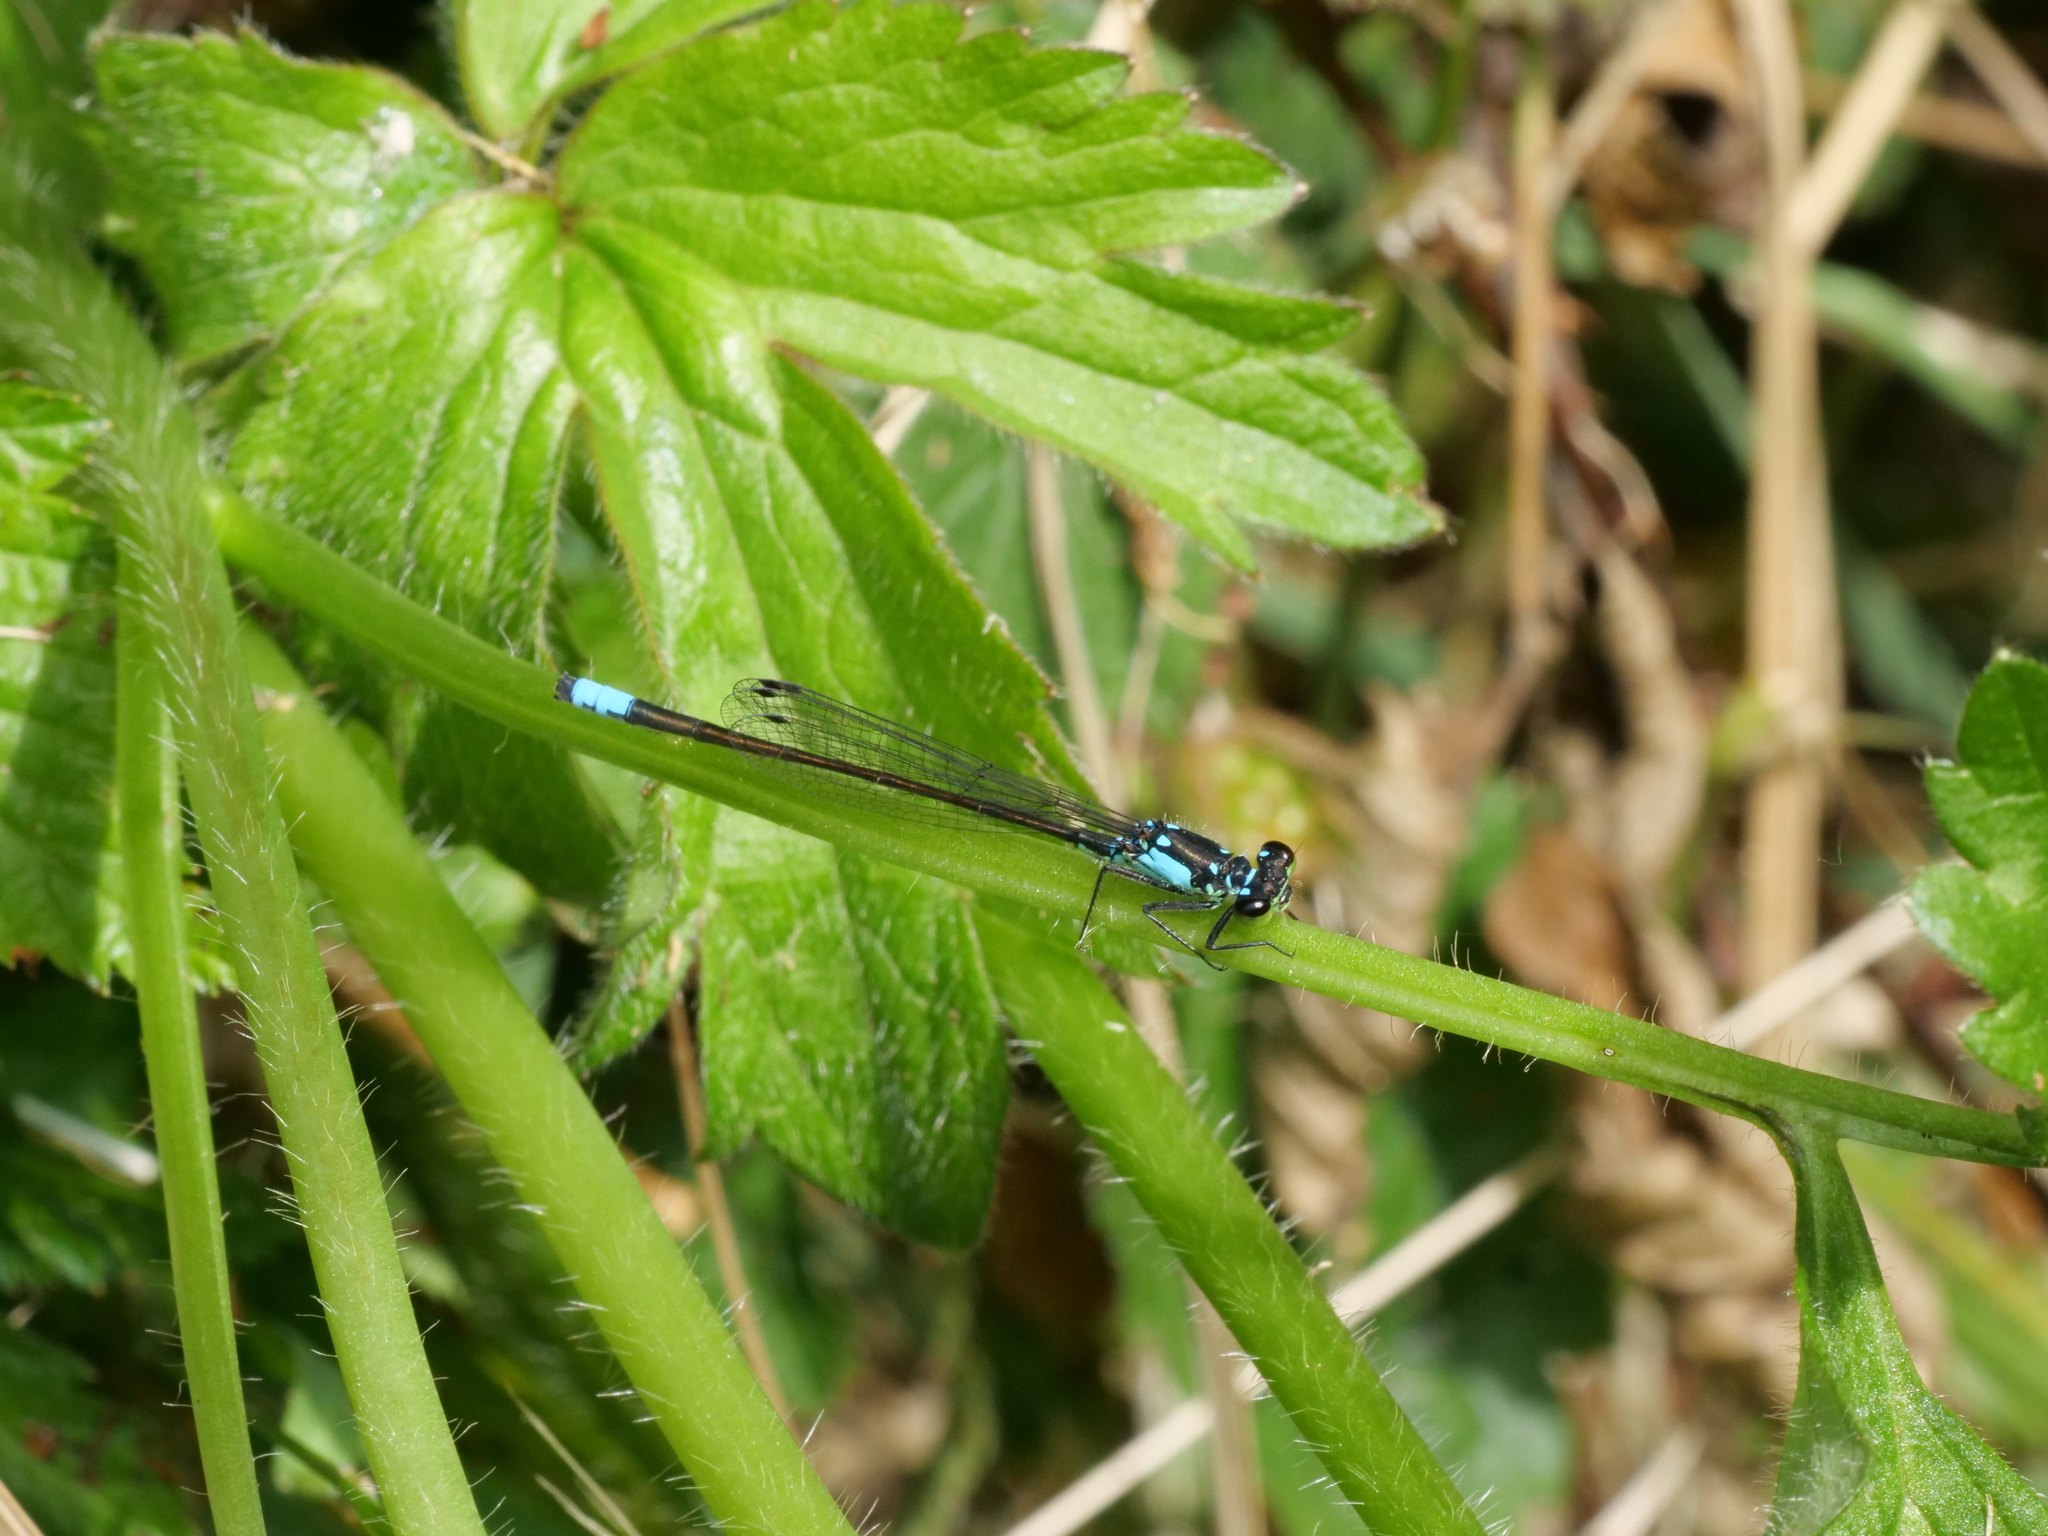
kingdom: Animalia
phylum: Arthropoda
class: Insecta
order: Odonata
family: Coenagrionidae
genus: Ischnura
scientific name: Ischnura cervula
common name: Pacific forktail
